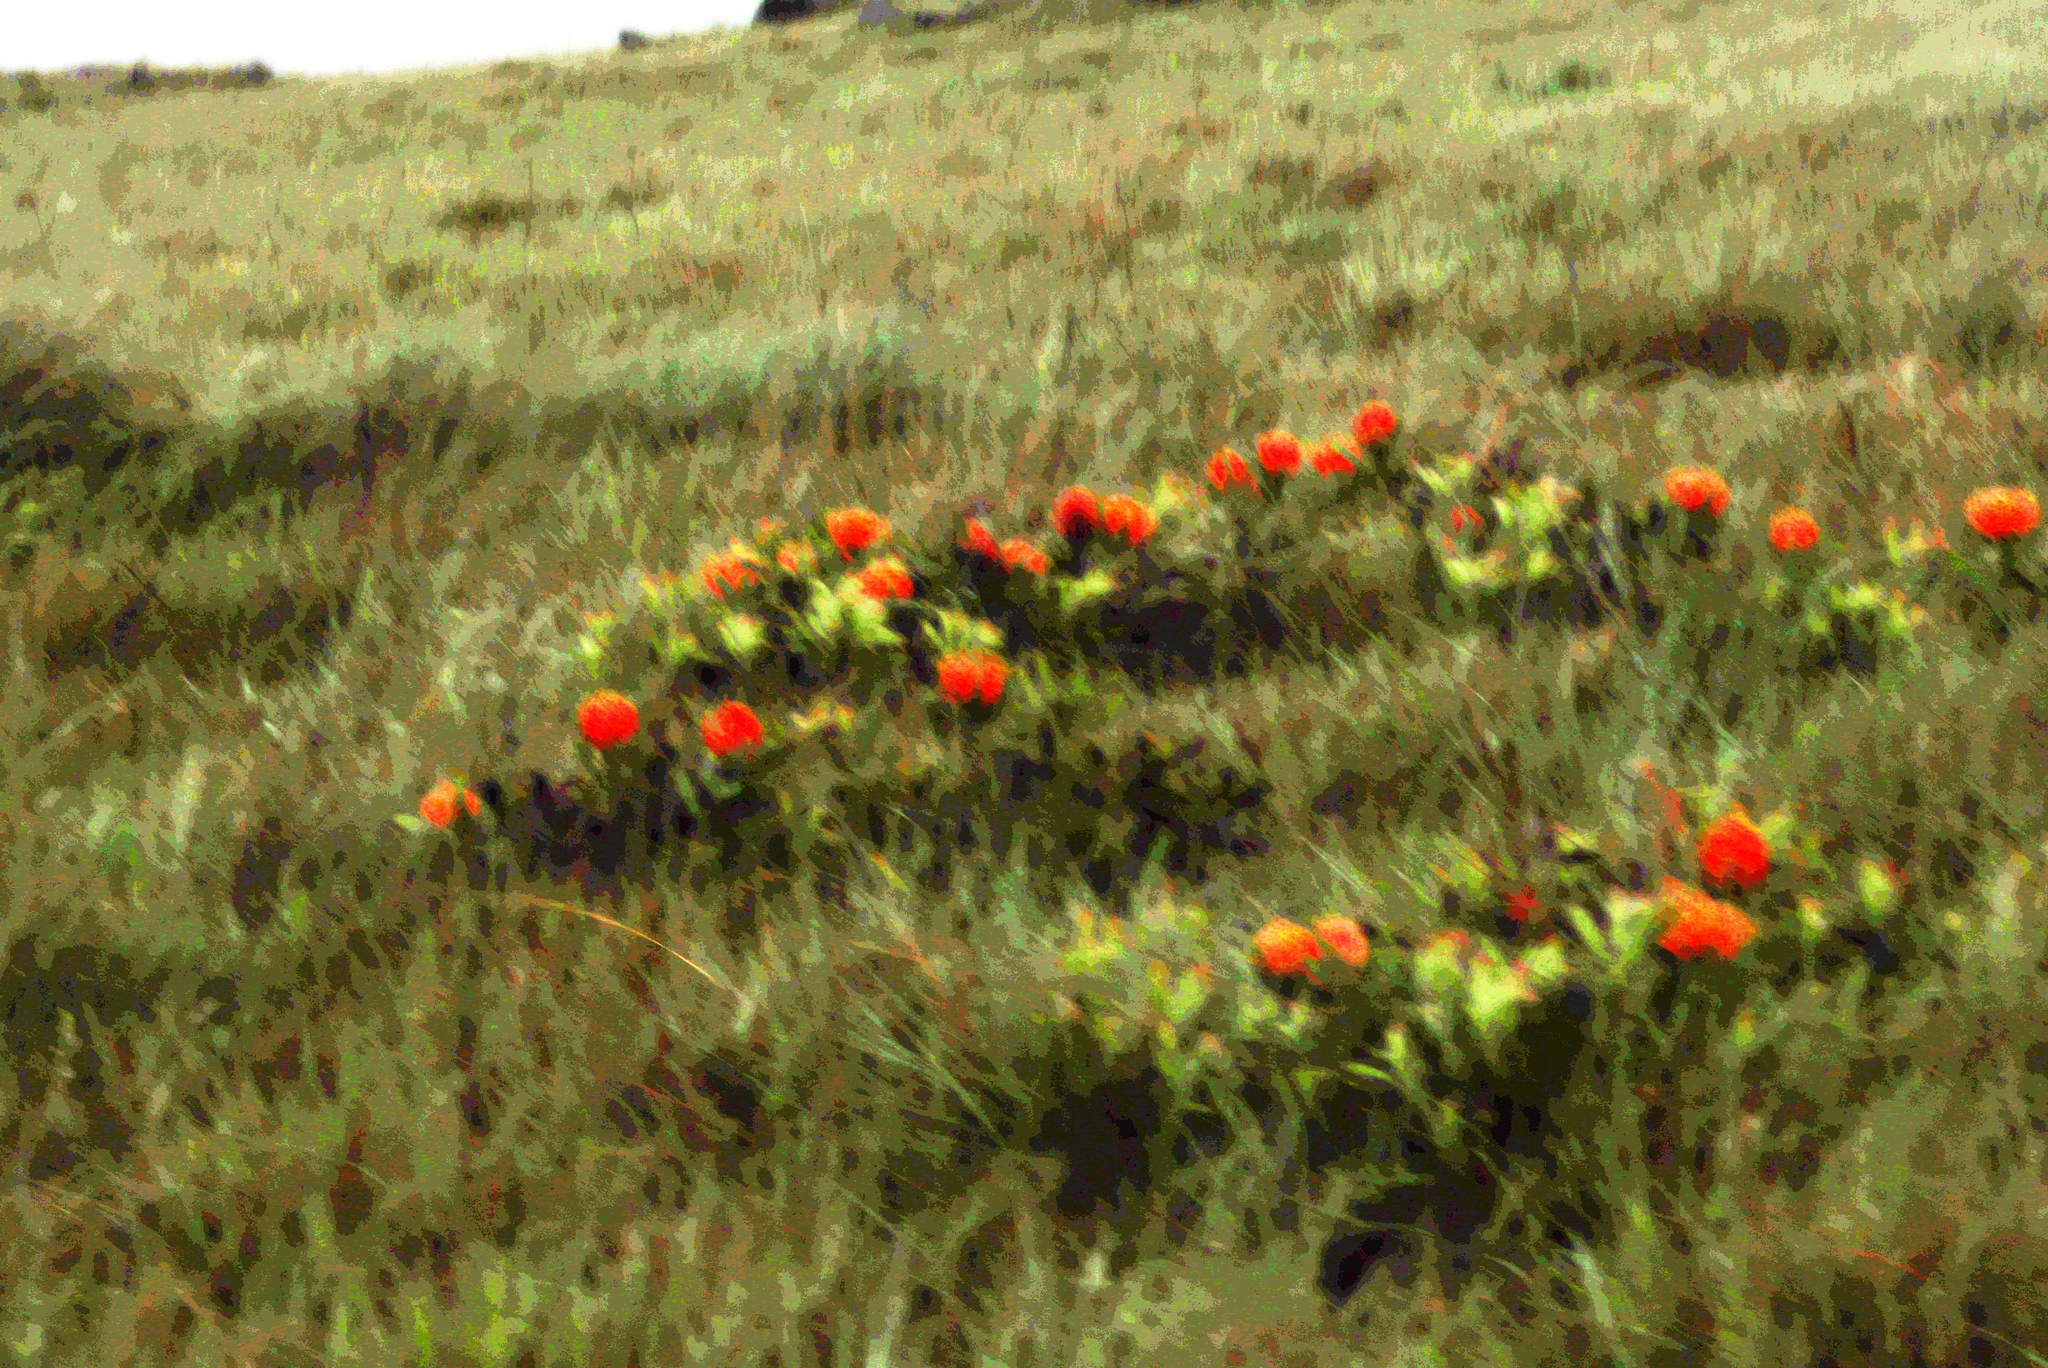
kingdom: Plantae
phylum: Tracheophyta
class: Magnoliopsida
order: Proteales
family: Proteaceae
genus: Leucospermum
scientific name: Leucospermum gerrardii
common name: Soapstone pincushion
